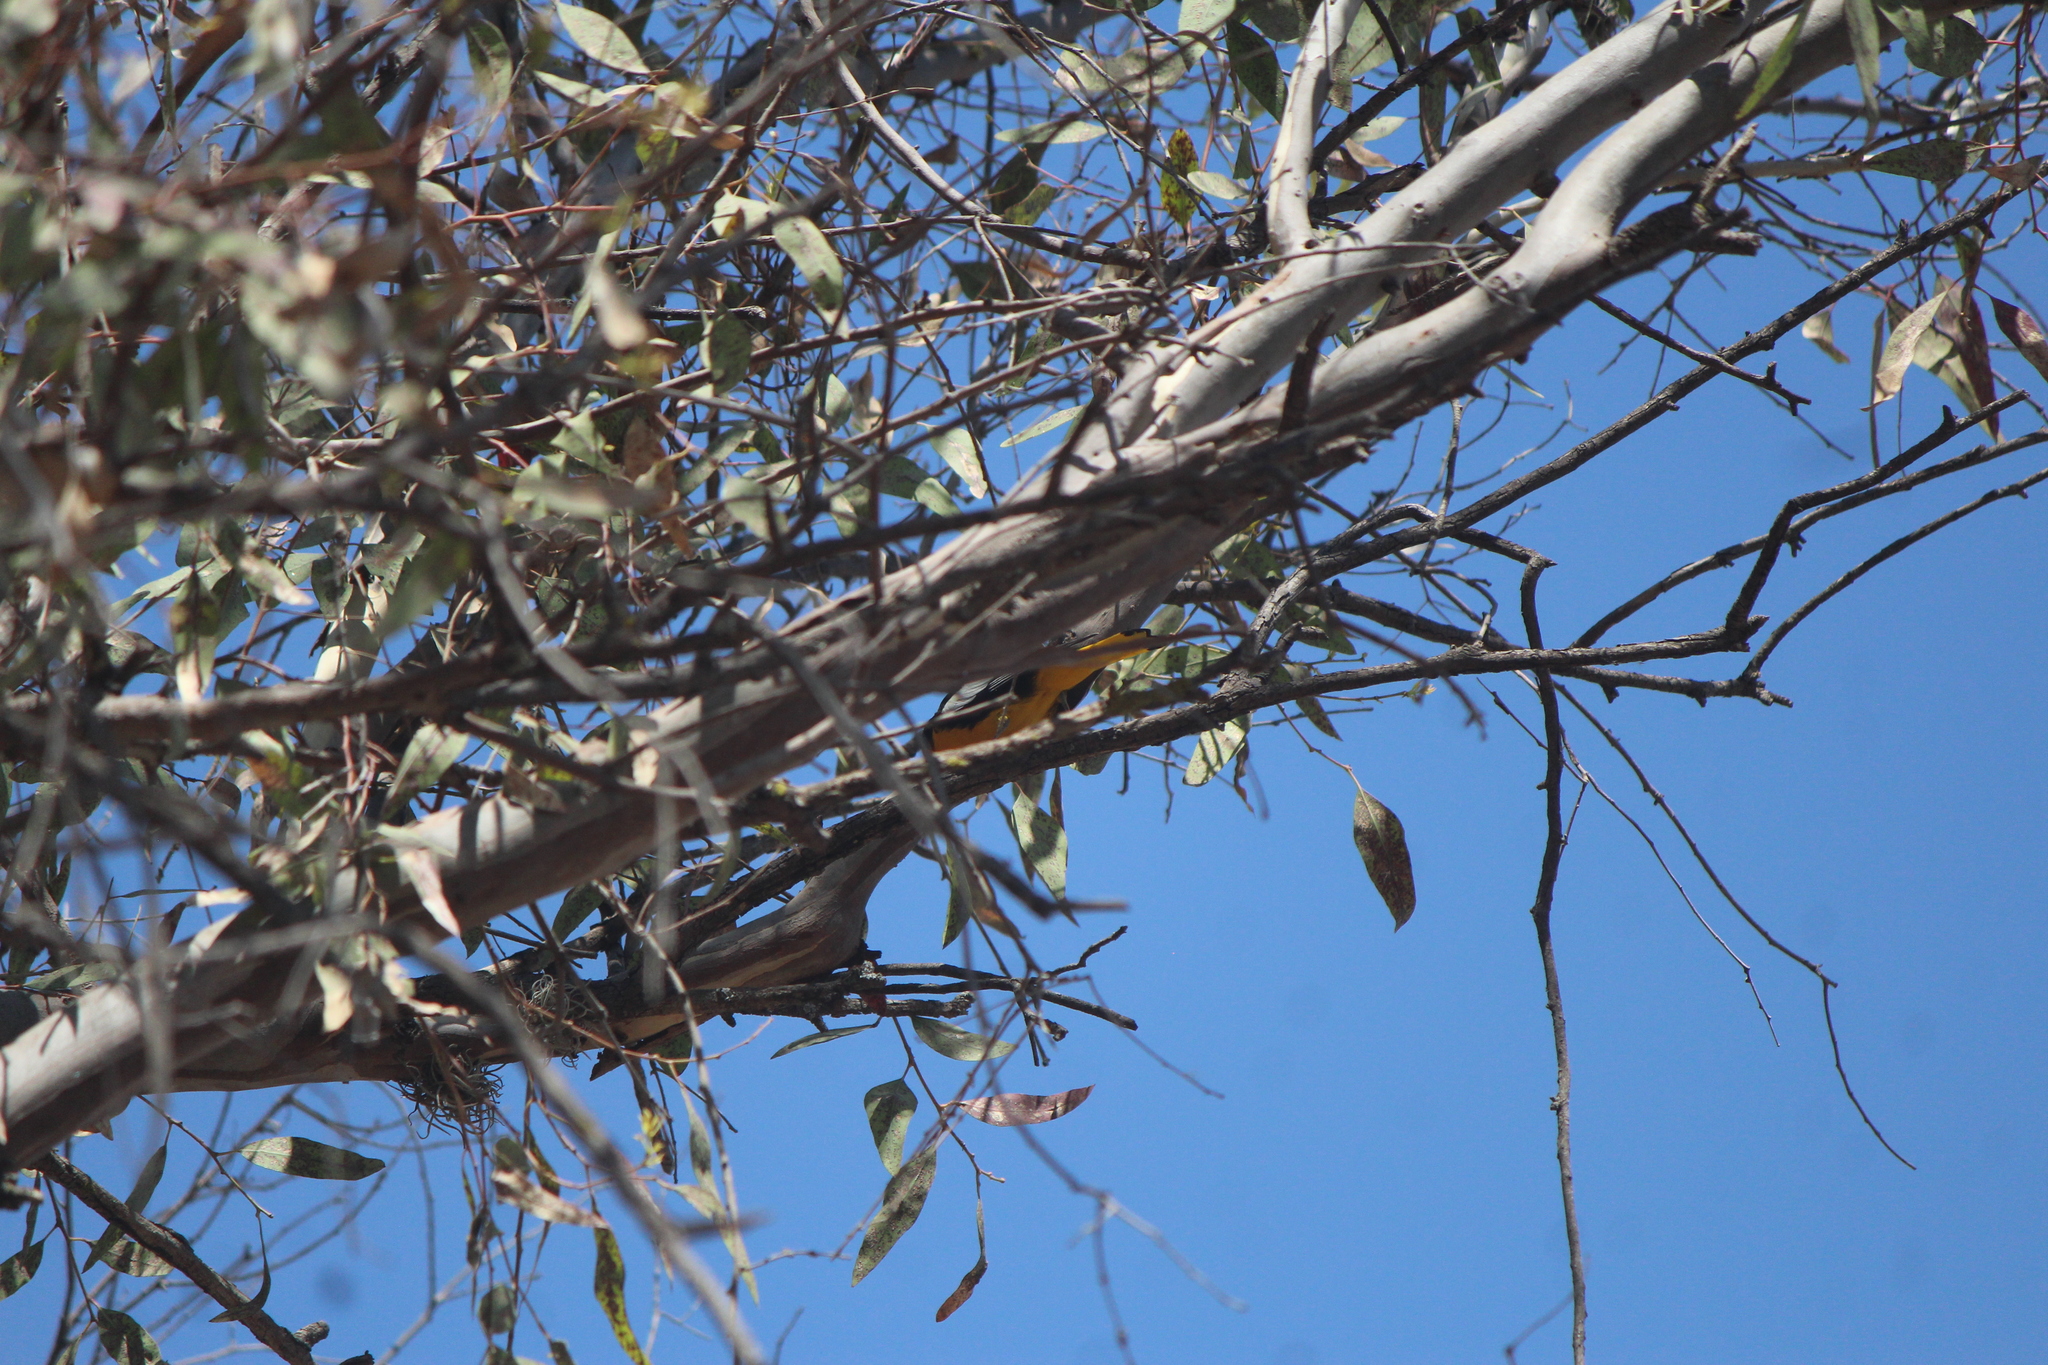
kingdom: Animalia
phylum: Chordata
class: Aves
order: Passeriformes
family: Icteridae
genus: Icterus
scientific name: Icterus abeillei
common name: Black-backed oriole
